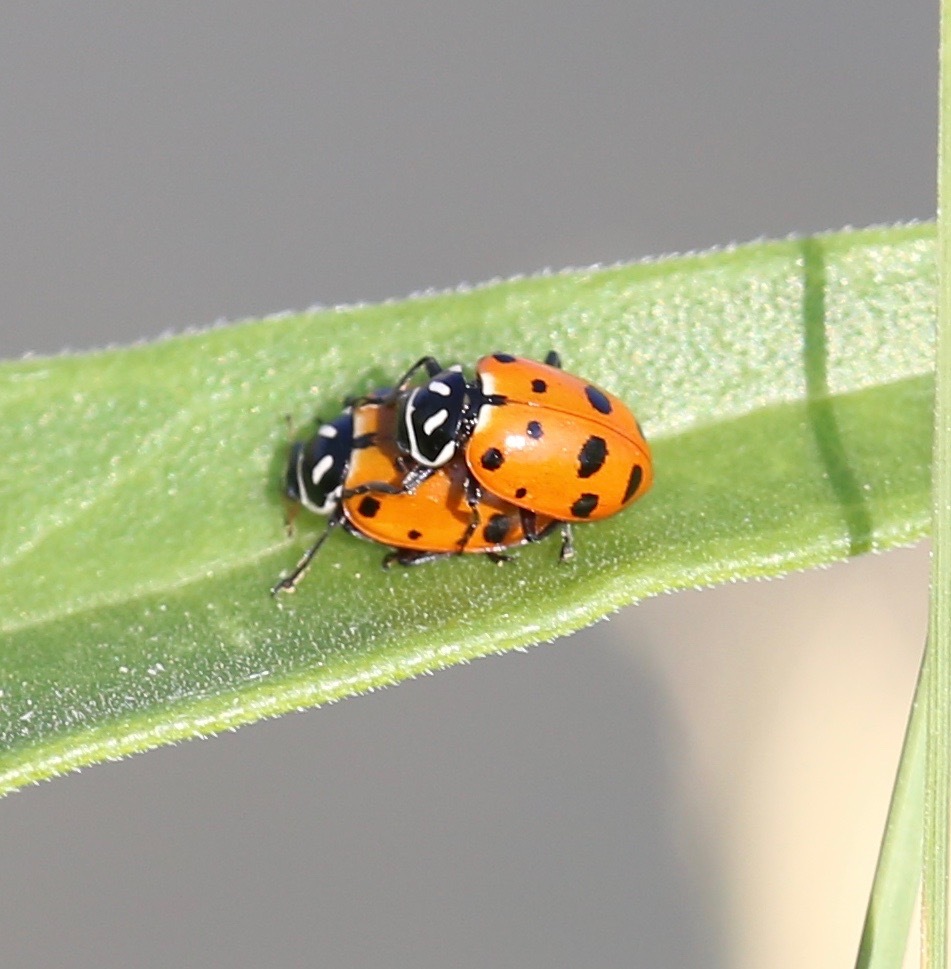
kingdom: Animalia
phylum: Arthropoda
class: Insecta
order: Coleoptera
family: Coccinellidae
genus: Hippodamia
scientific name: Hippodamia convergens
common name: Convergent lady beetle
